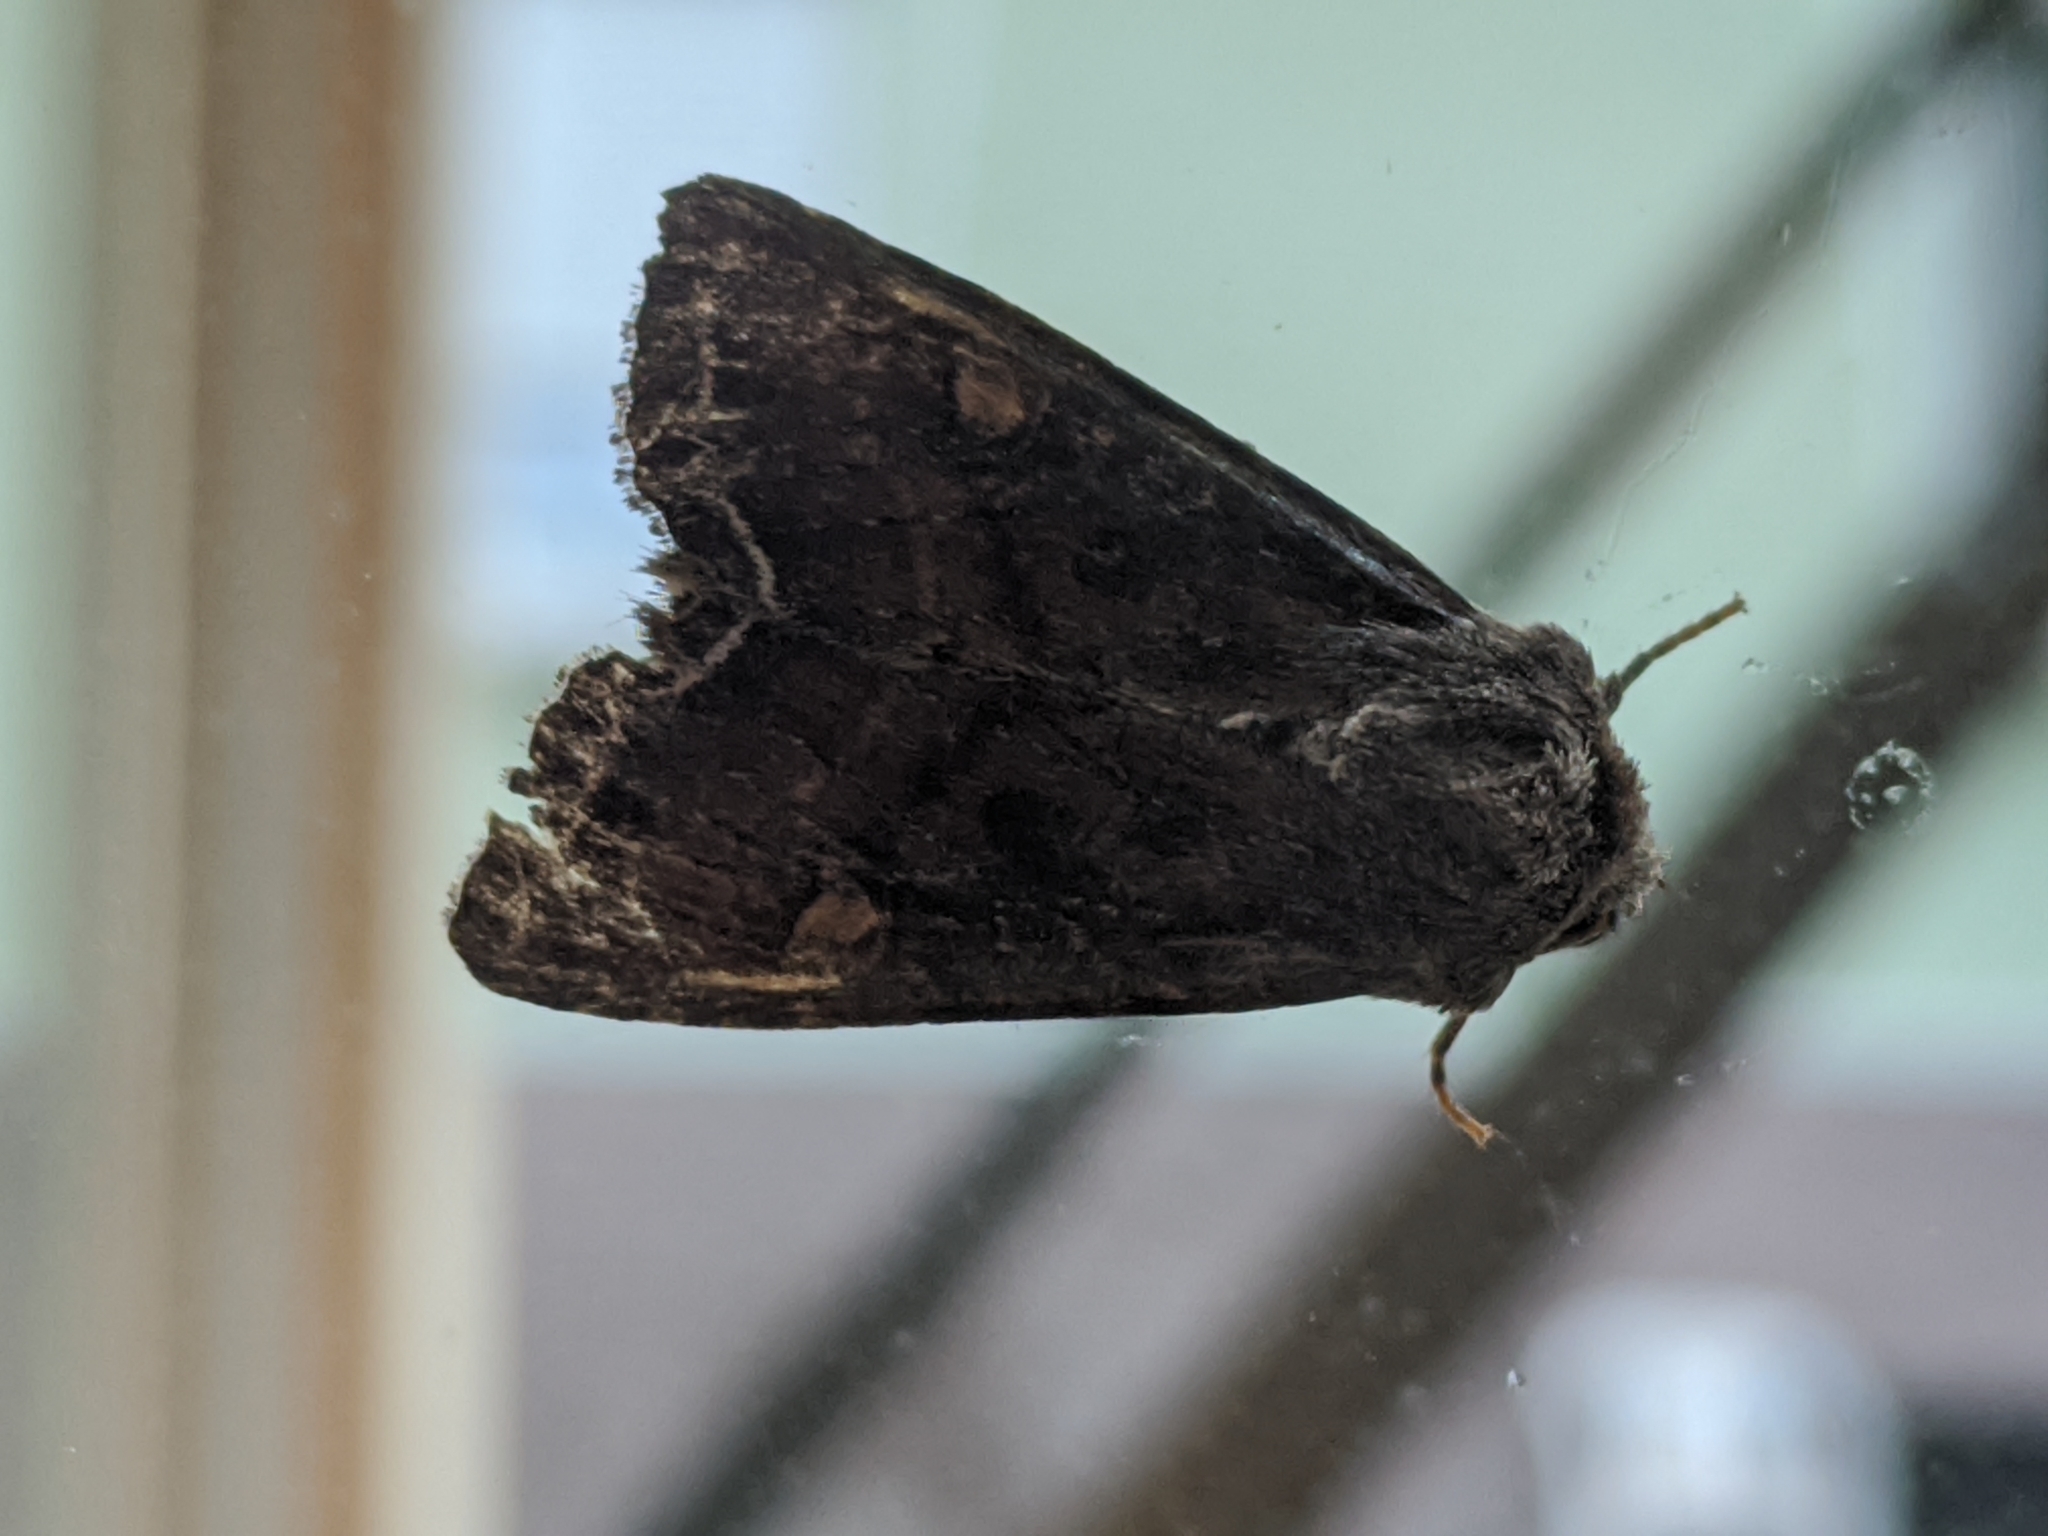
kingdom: Animalia
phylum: Arthropoda
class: Insecta
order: Lepidoptera
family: Noctuidae
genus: Lacanobia
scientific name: Lacanobia oleracea
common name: Bright-line brown-eye
